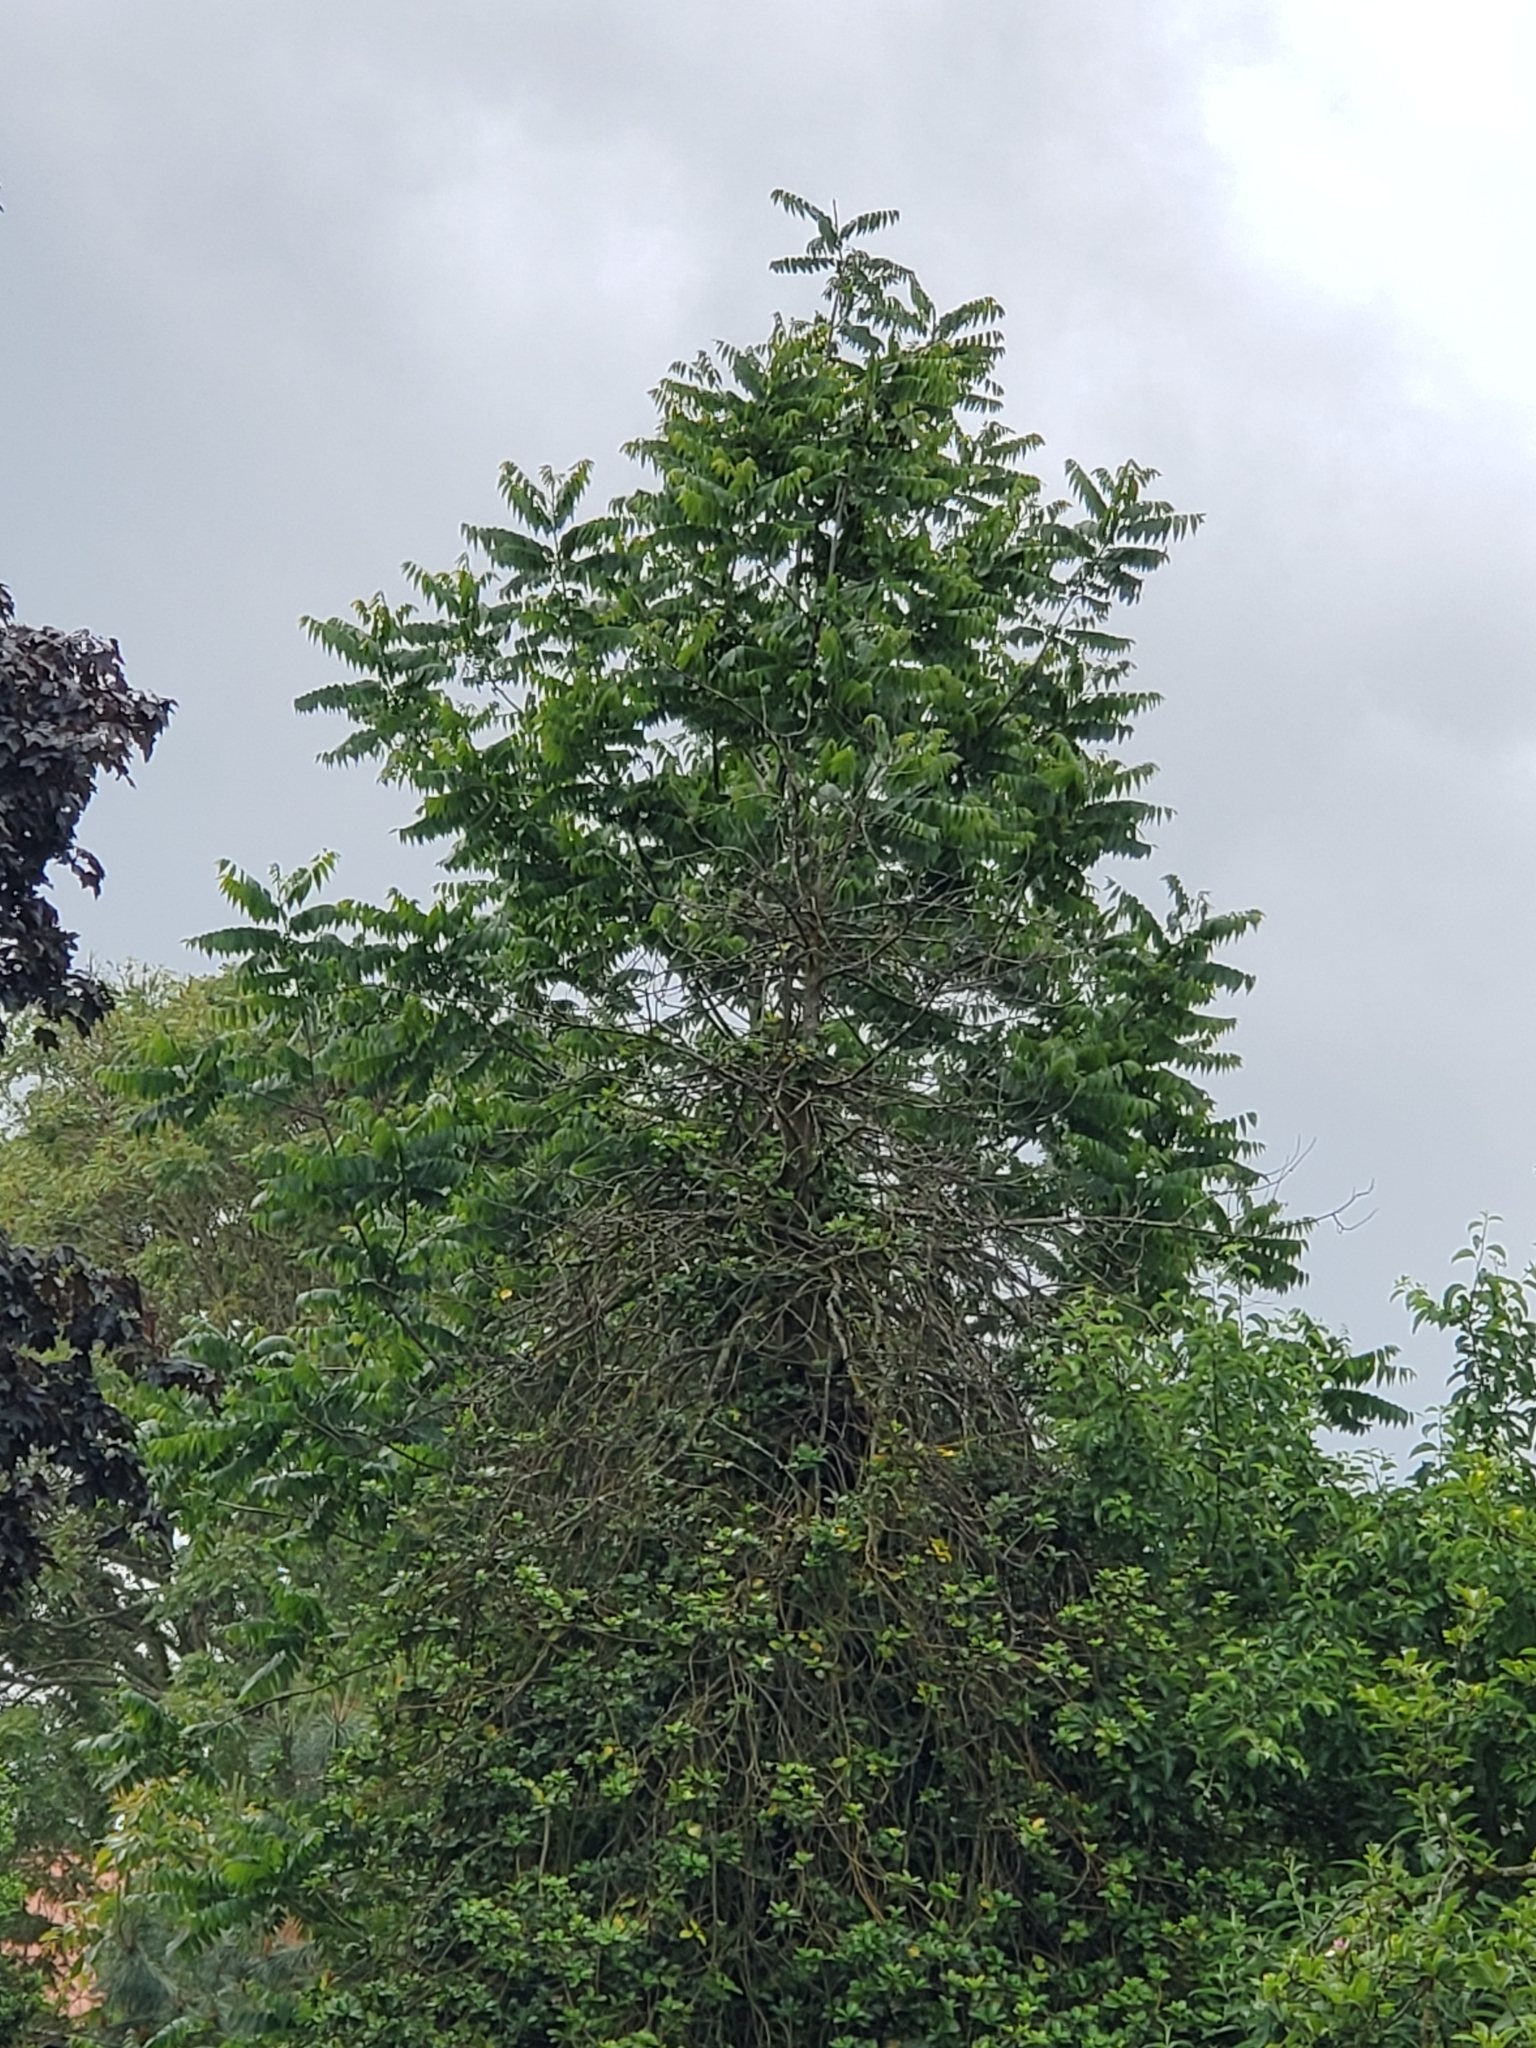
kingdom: Plantae
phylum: Tracheophyta
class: Magnoliopsida
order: Sapindales
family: Simaroubaceae
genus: Ailanthus
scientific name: Ailanthus altissima
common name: Tree-of-heaven
